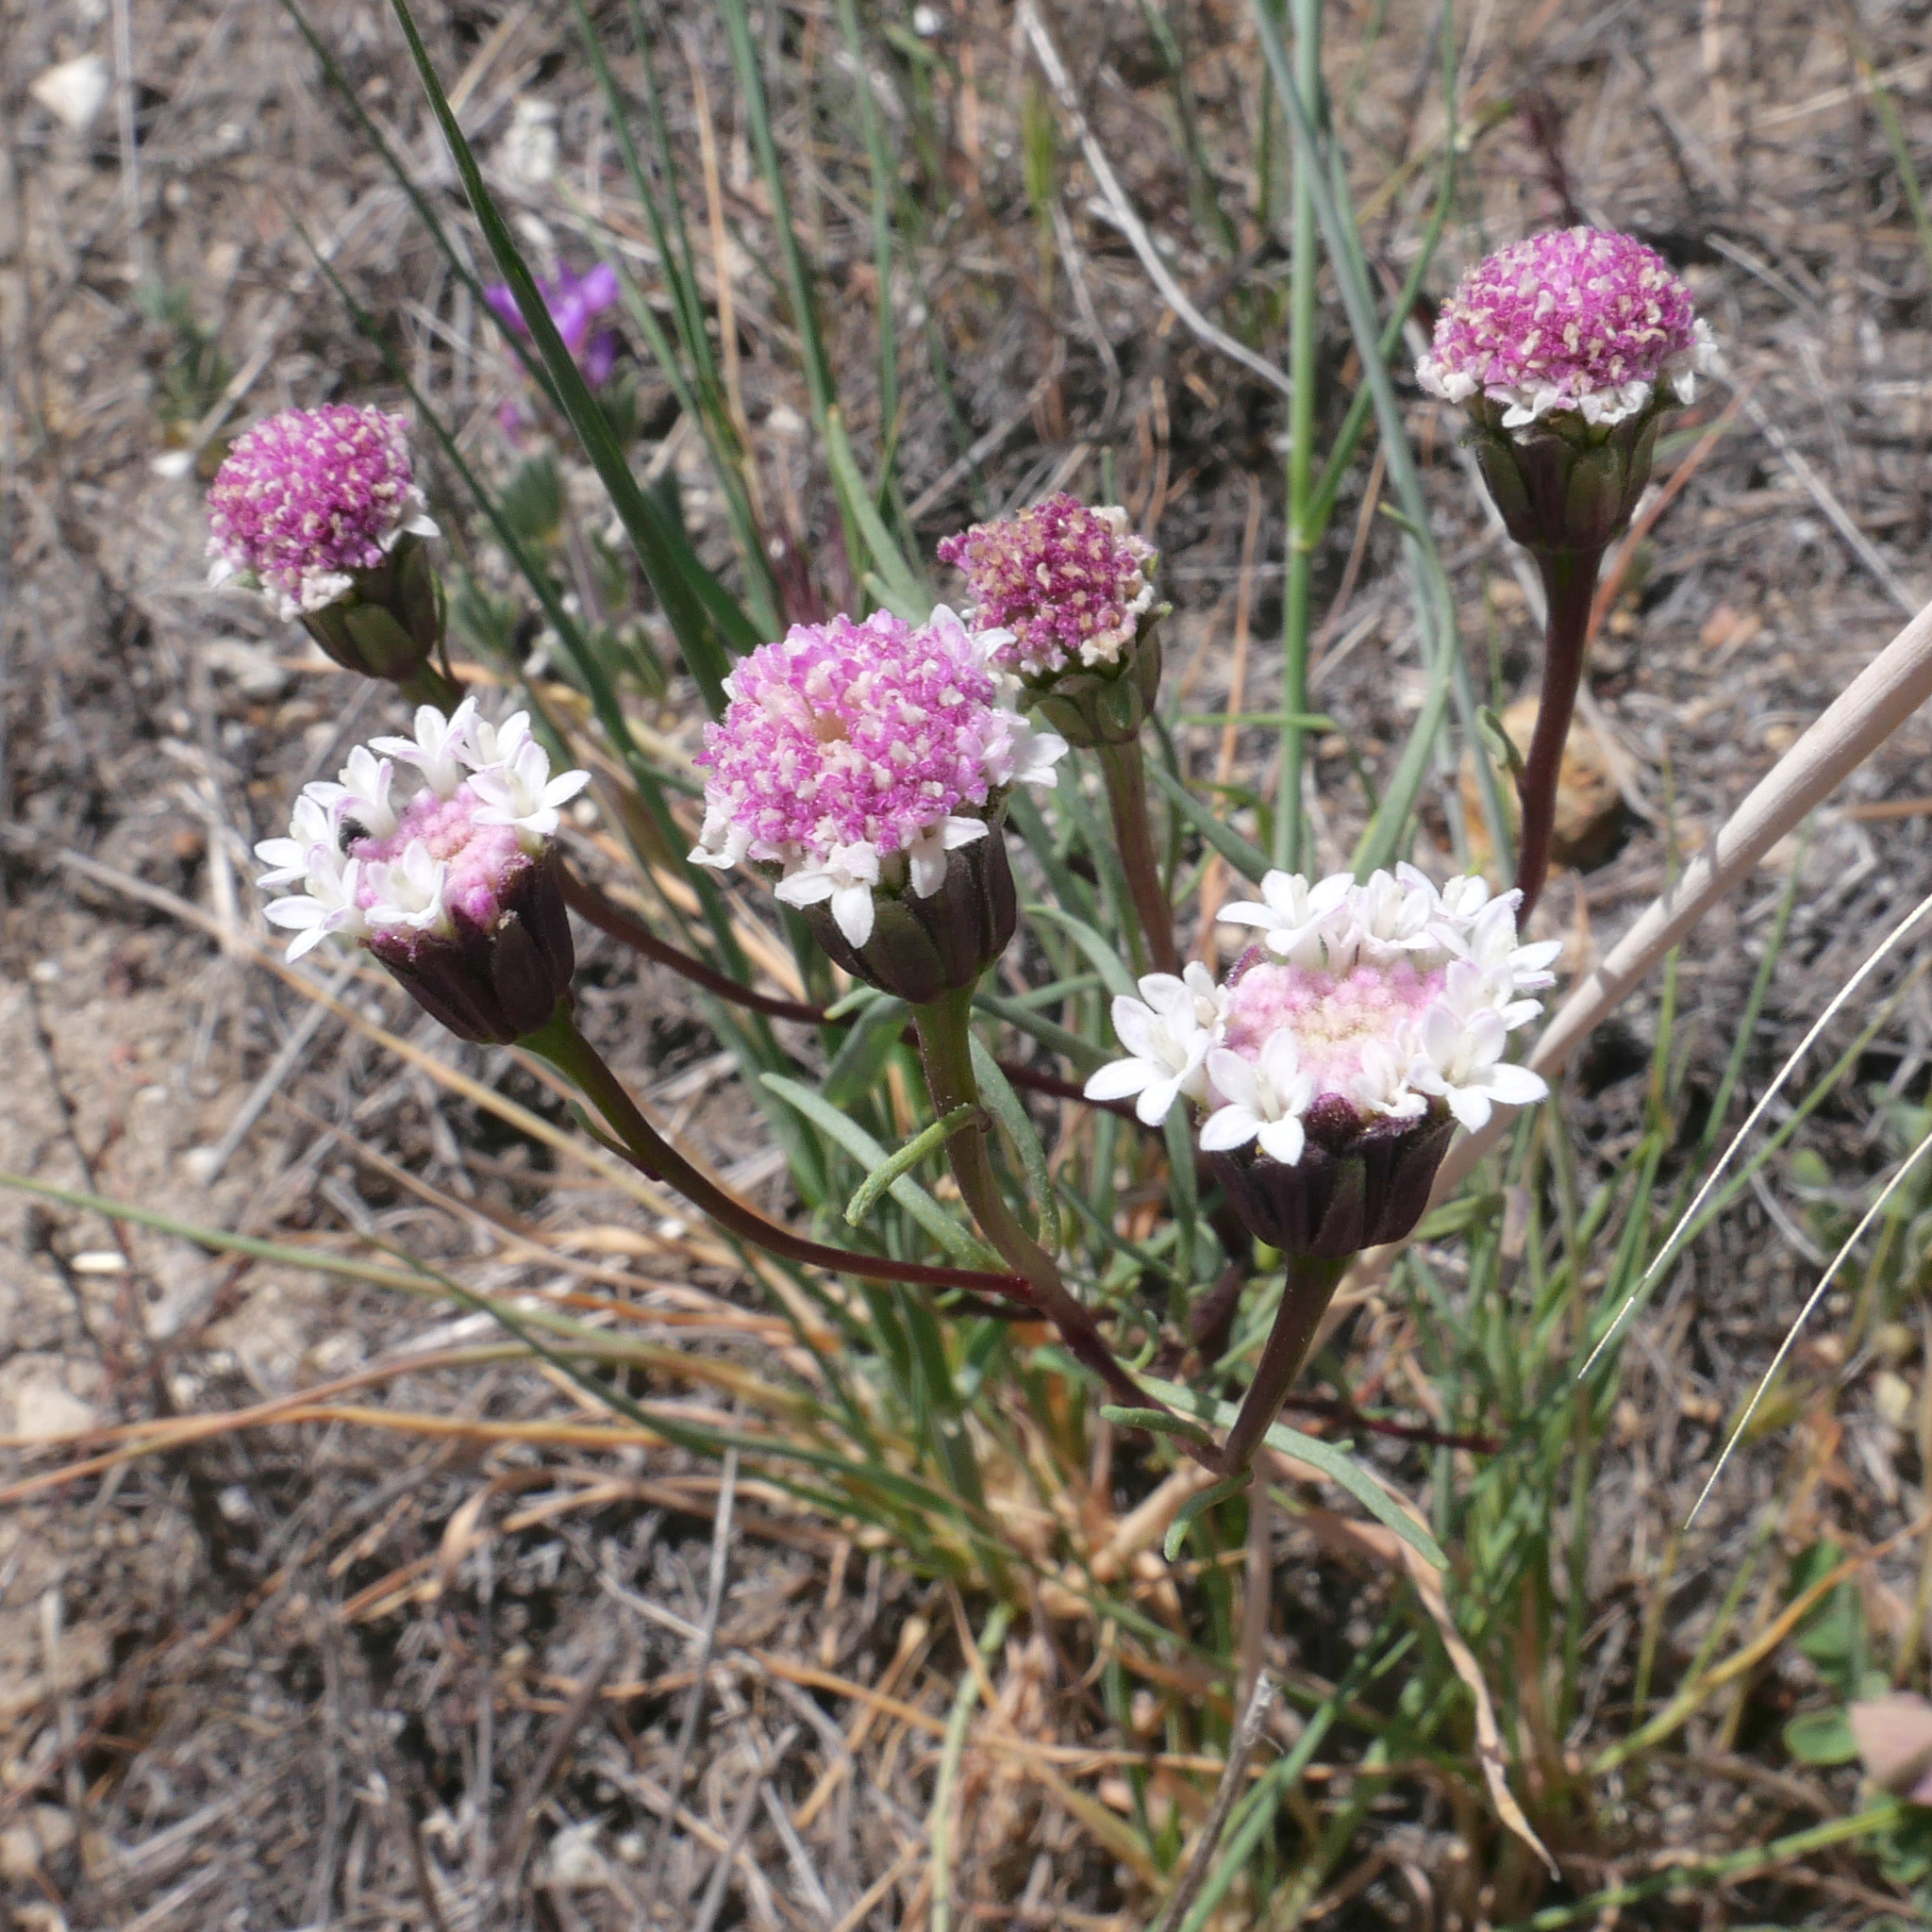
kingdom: Plantae
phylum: Tracheophyta
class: Magnoliopsida
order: Asterales
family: Asteraceae
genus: Chaenactis
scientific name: Chaenactis xantiana
